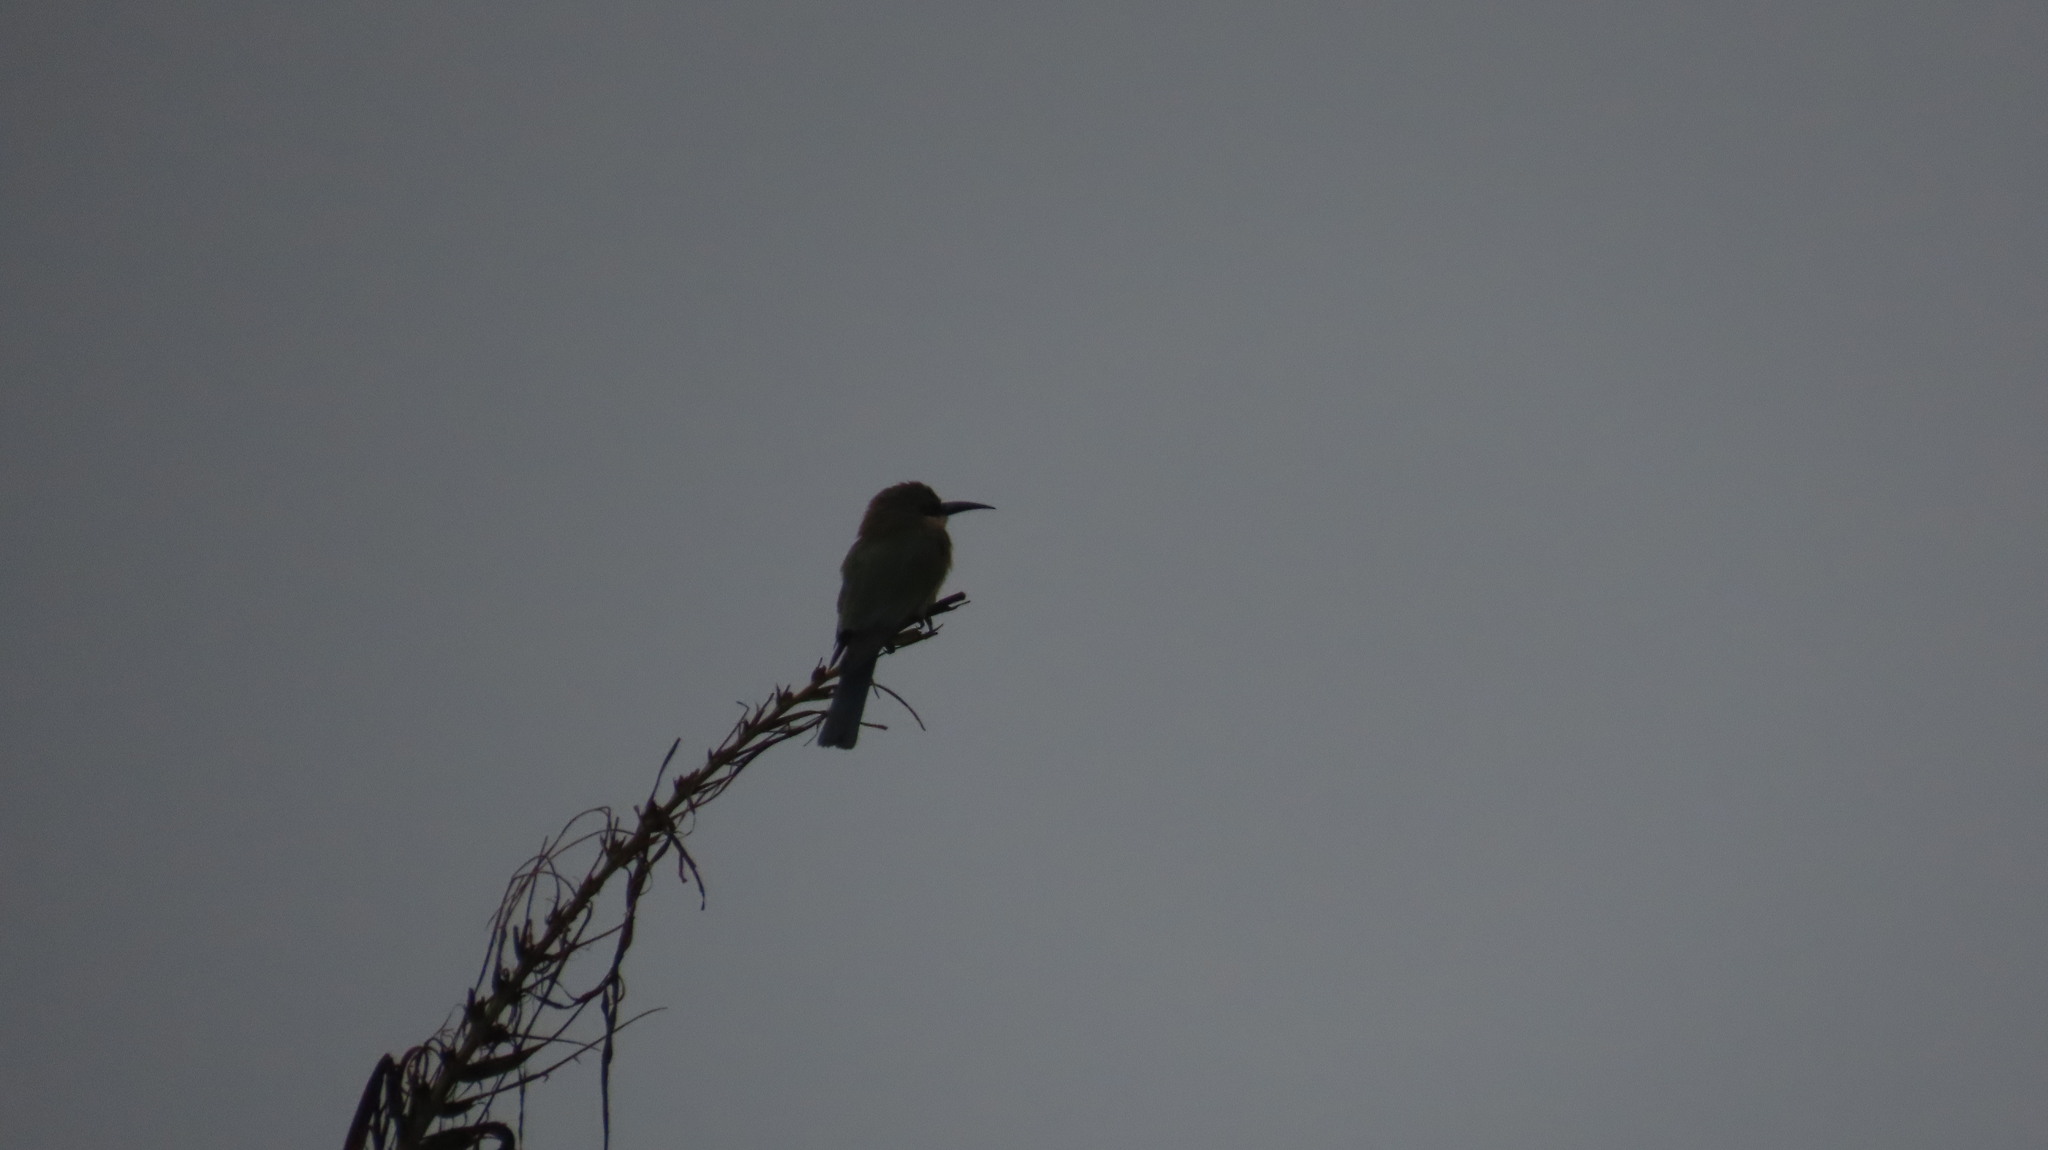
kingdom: Animalia
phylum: Chordata
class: Aves
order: Coraciiformes
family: Meropidae
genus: Merops
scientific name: Merops philippinus
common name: Blue-tailed bee-eater
